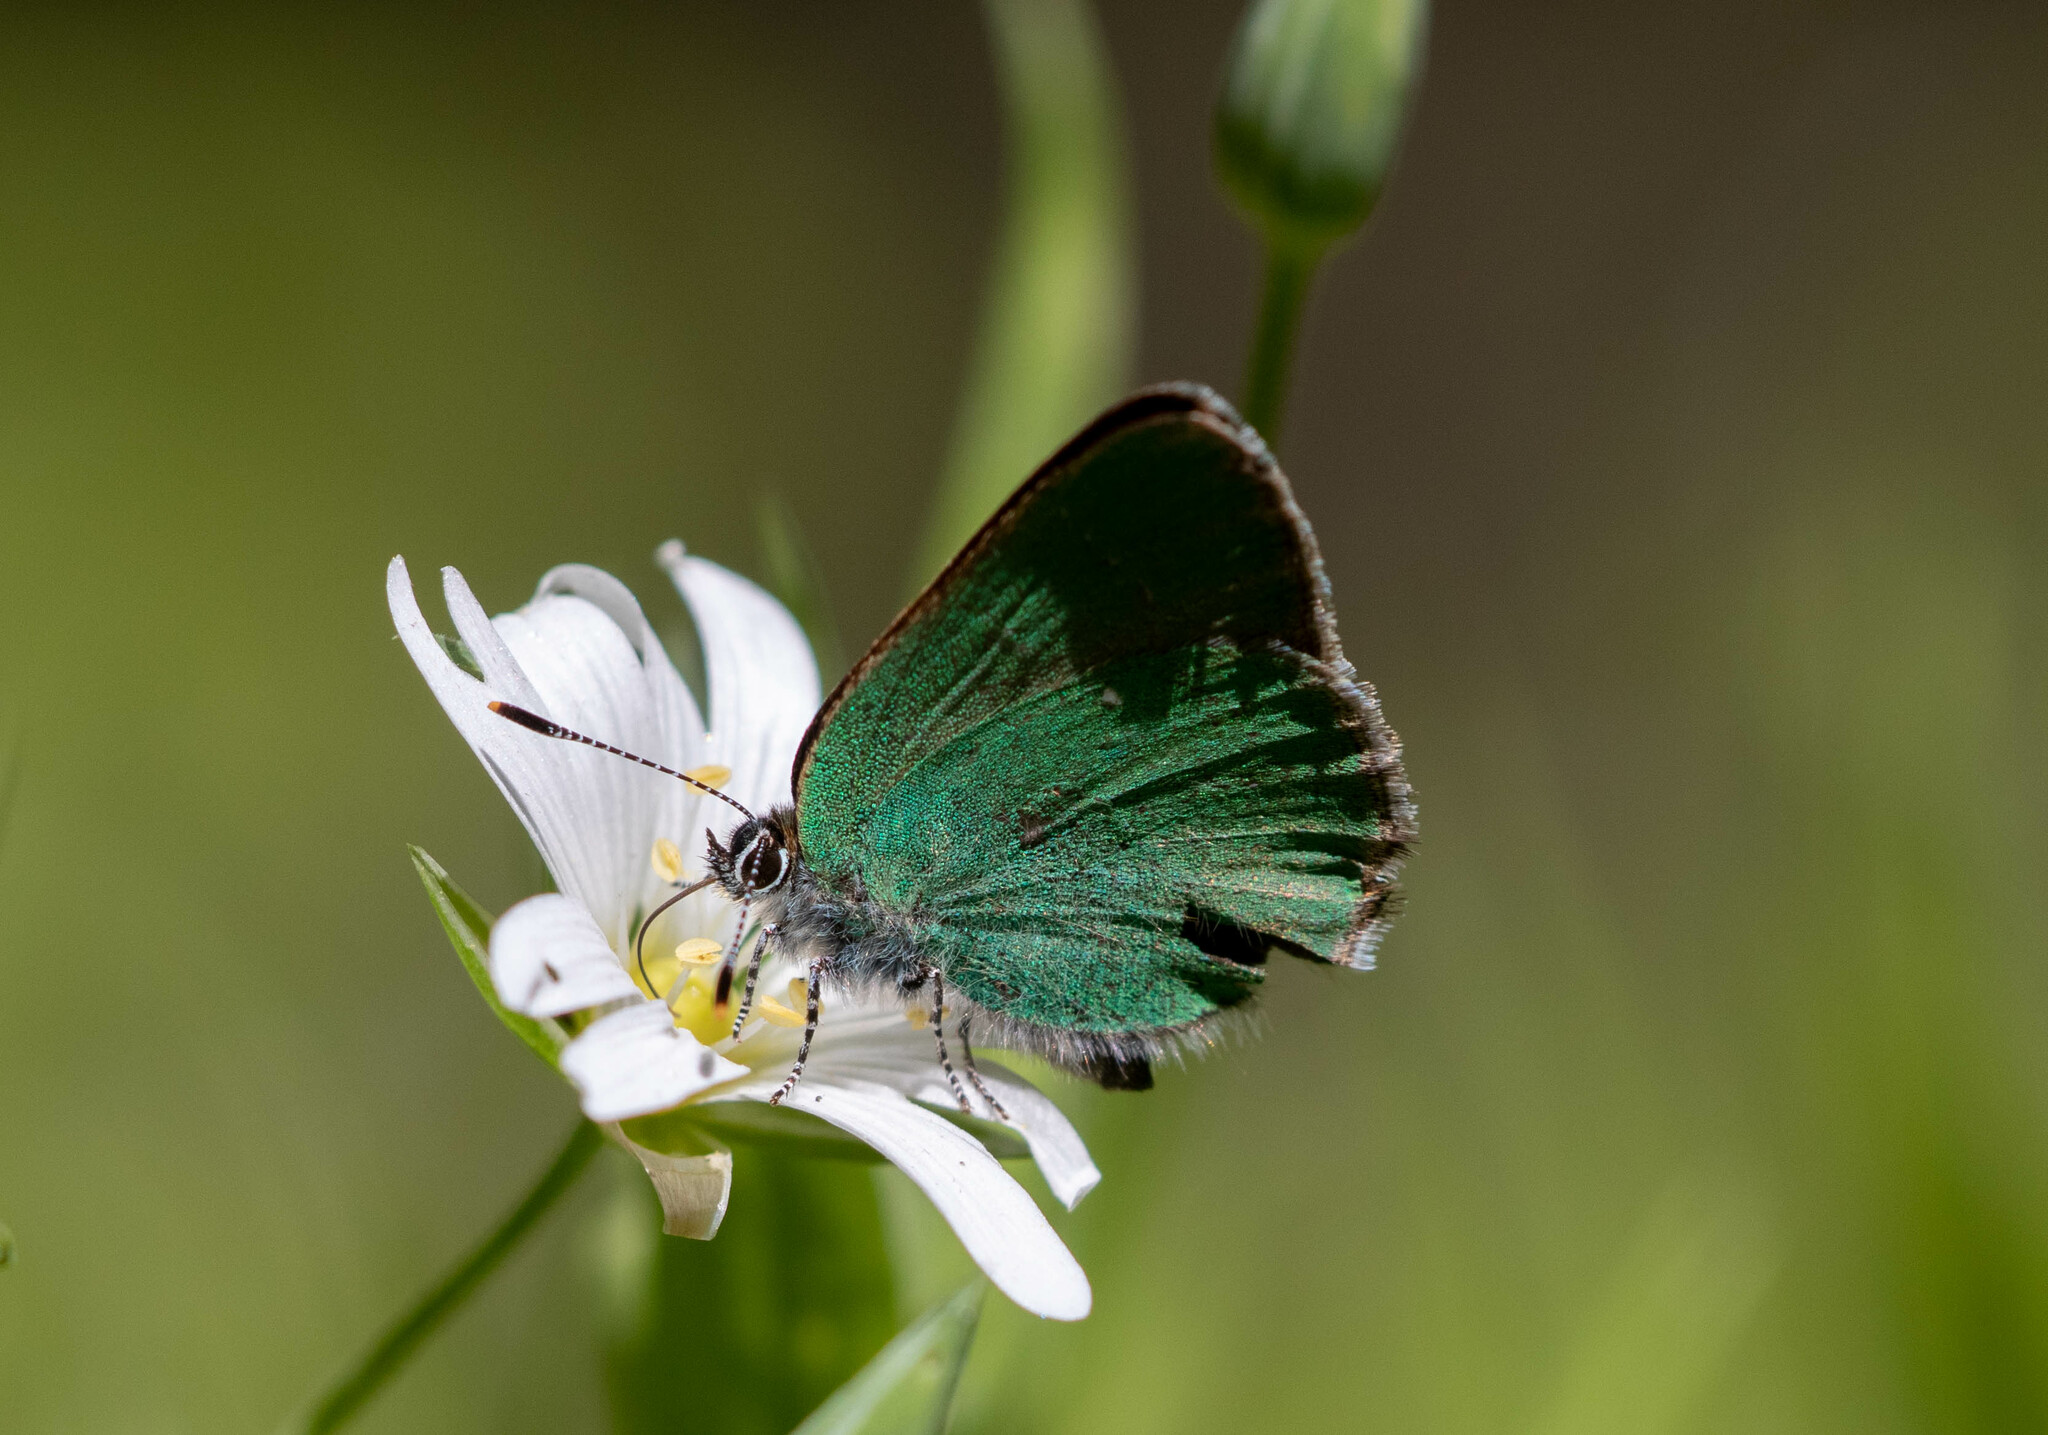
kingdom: Animalia
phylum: Arthropoda
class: Insecta
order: Lepidoptera
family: Lycaenidae
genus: Callophrys
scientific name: Callophrys rubi
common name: Green hairstreak
